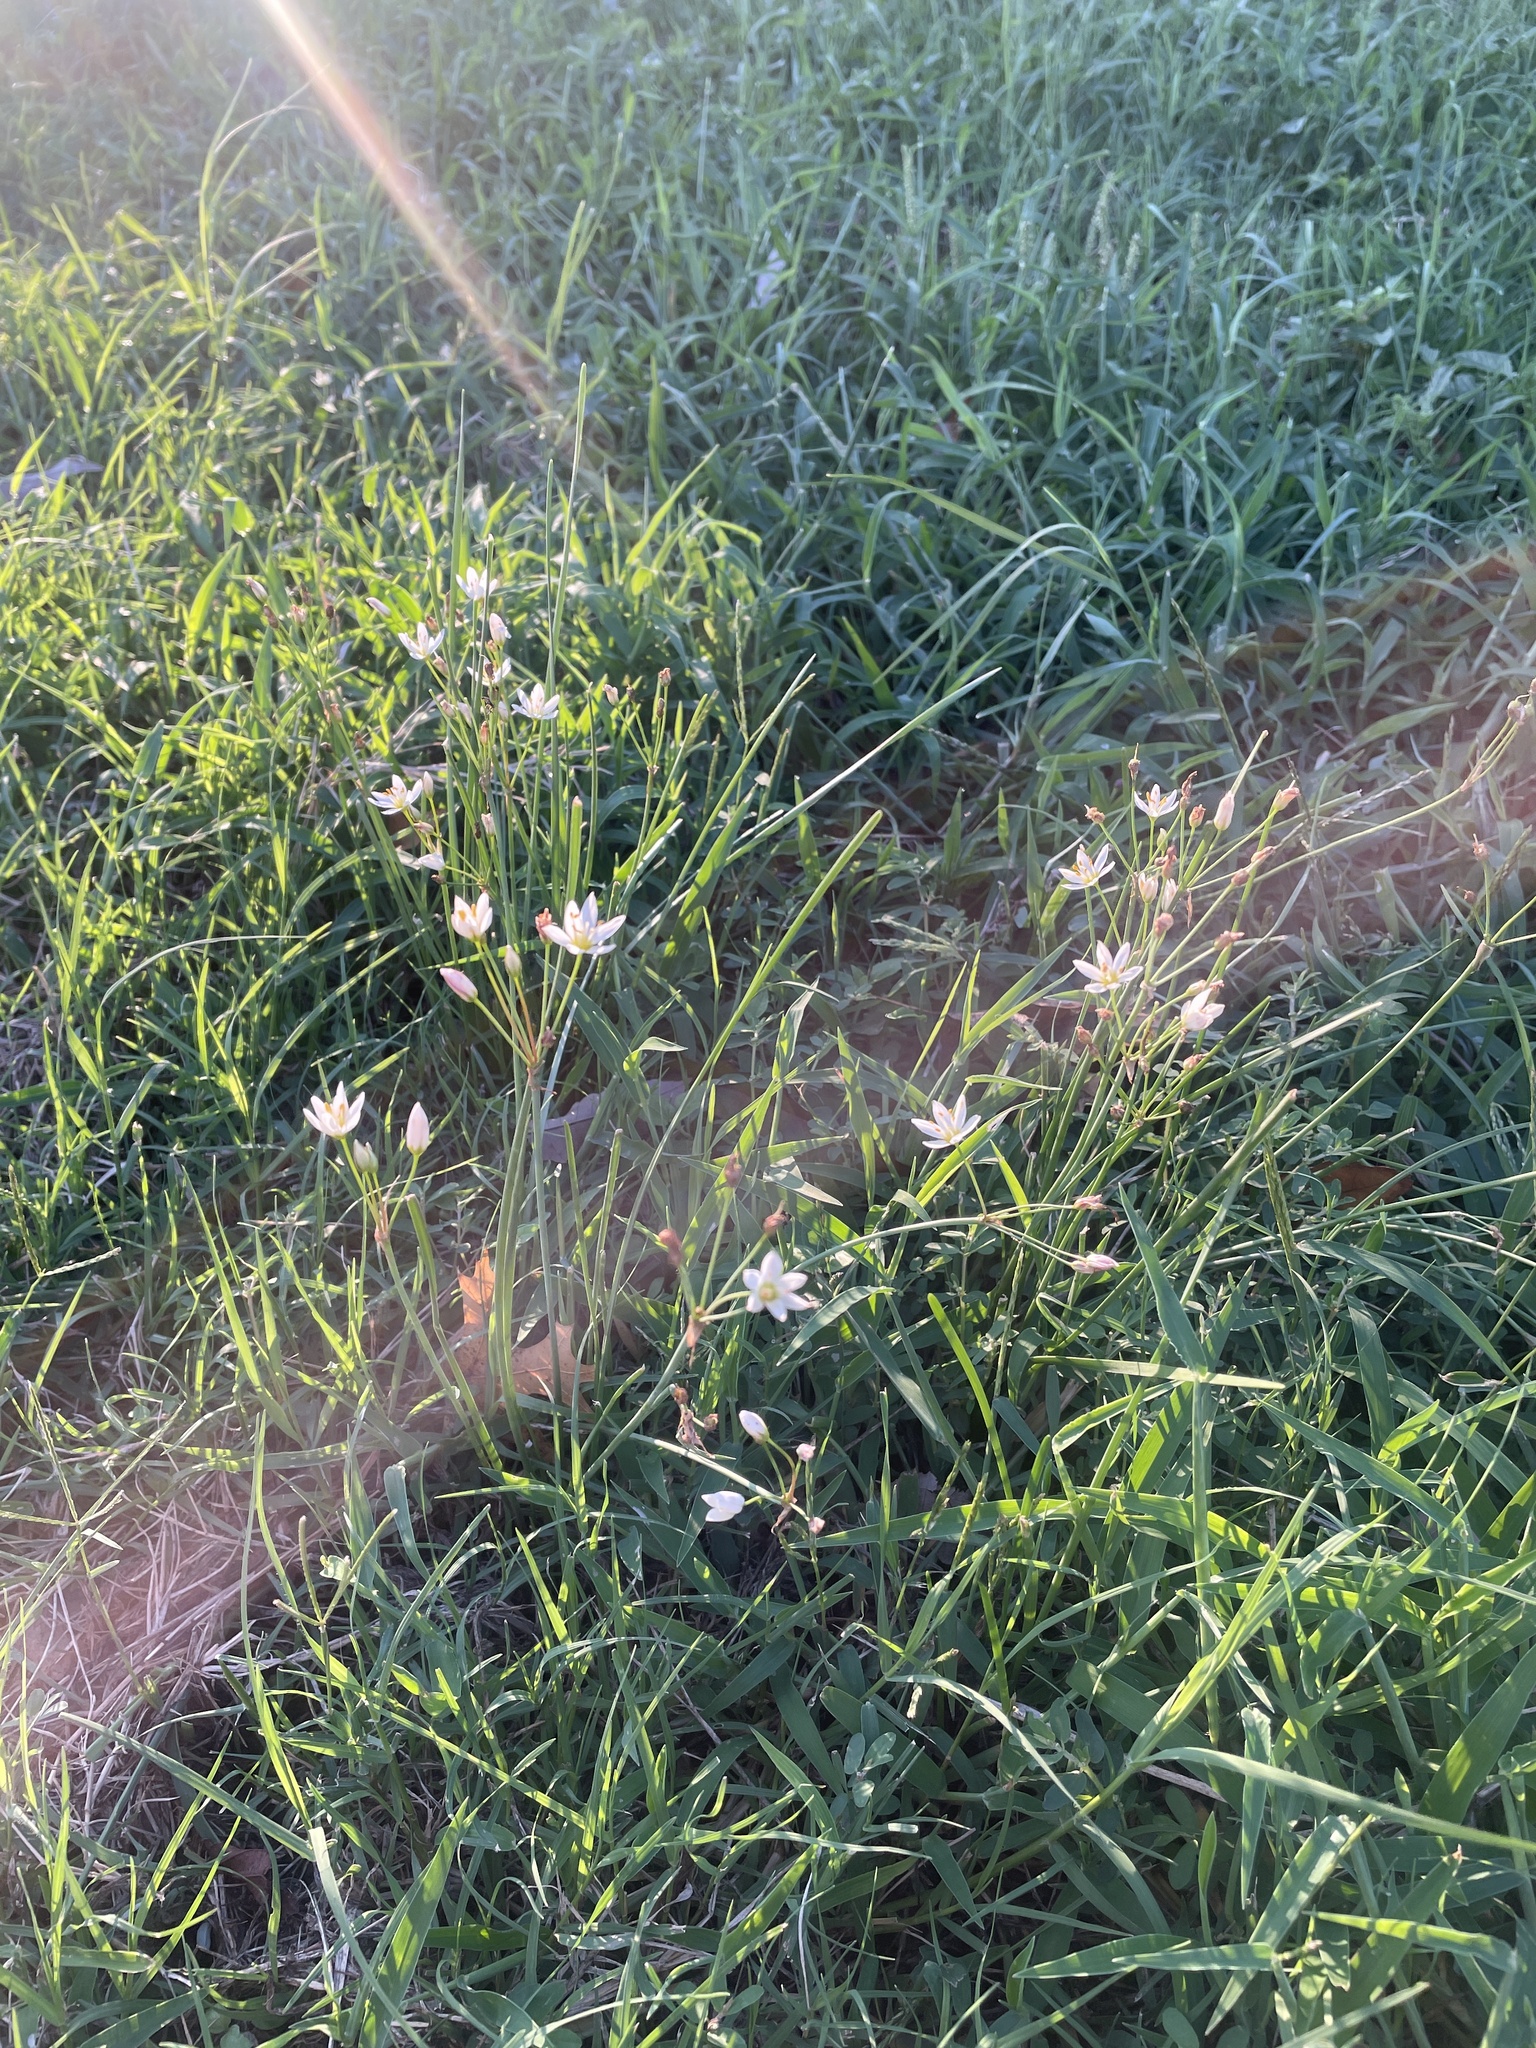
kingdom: Plantae
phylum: Tracheophyta
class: Liliopsida
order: Asparagales
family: Amaryllidaceae
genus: Nothoscordum
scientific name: Nothoscordum bivalve
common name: Crow-poison
